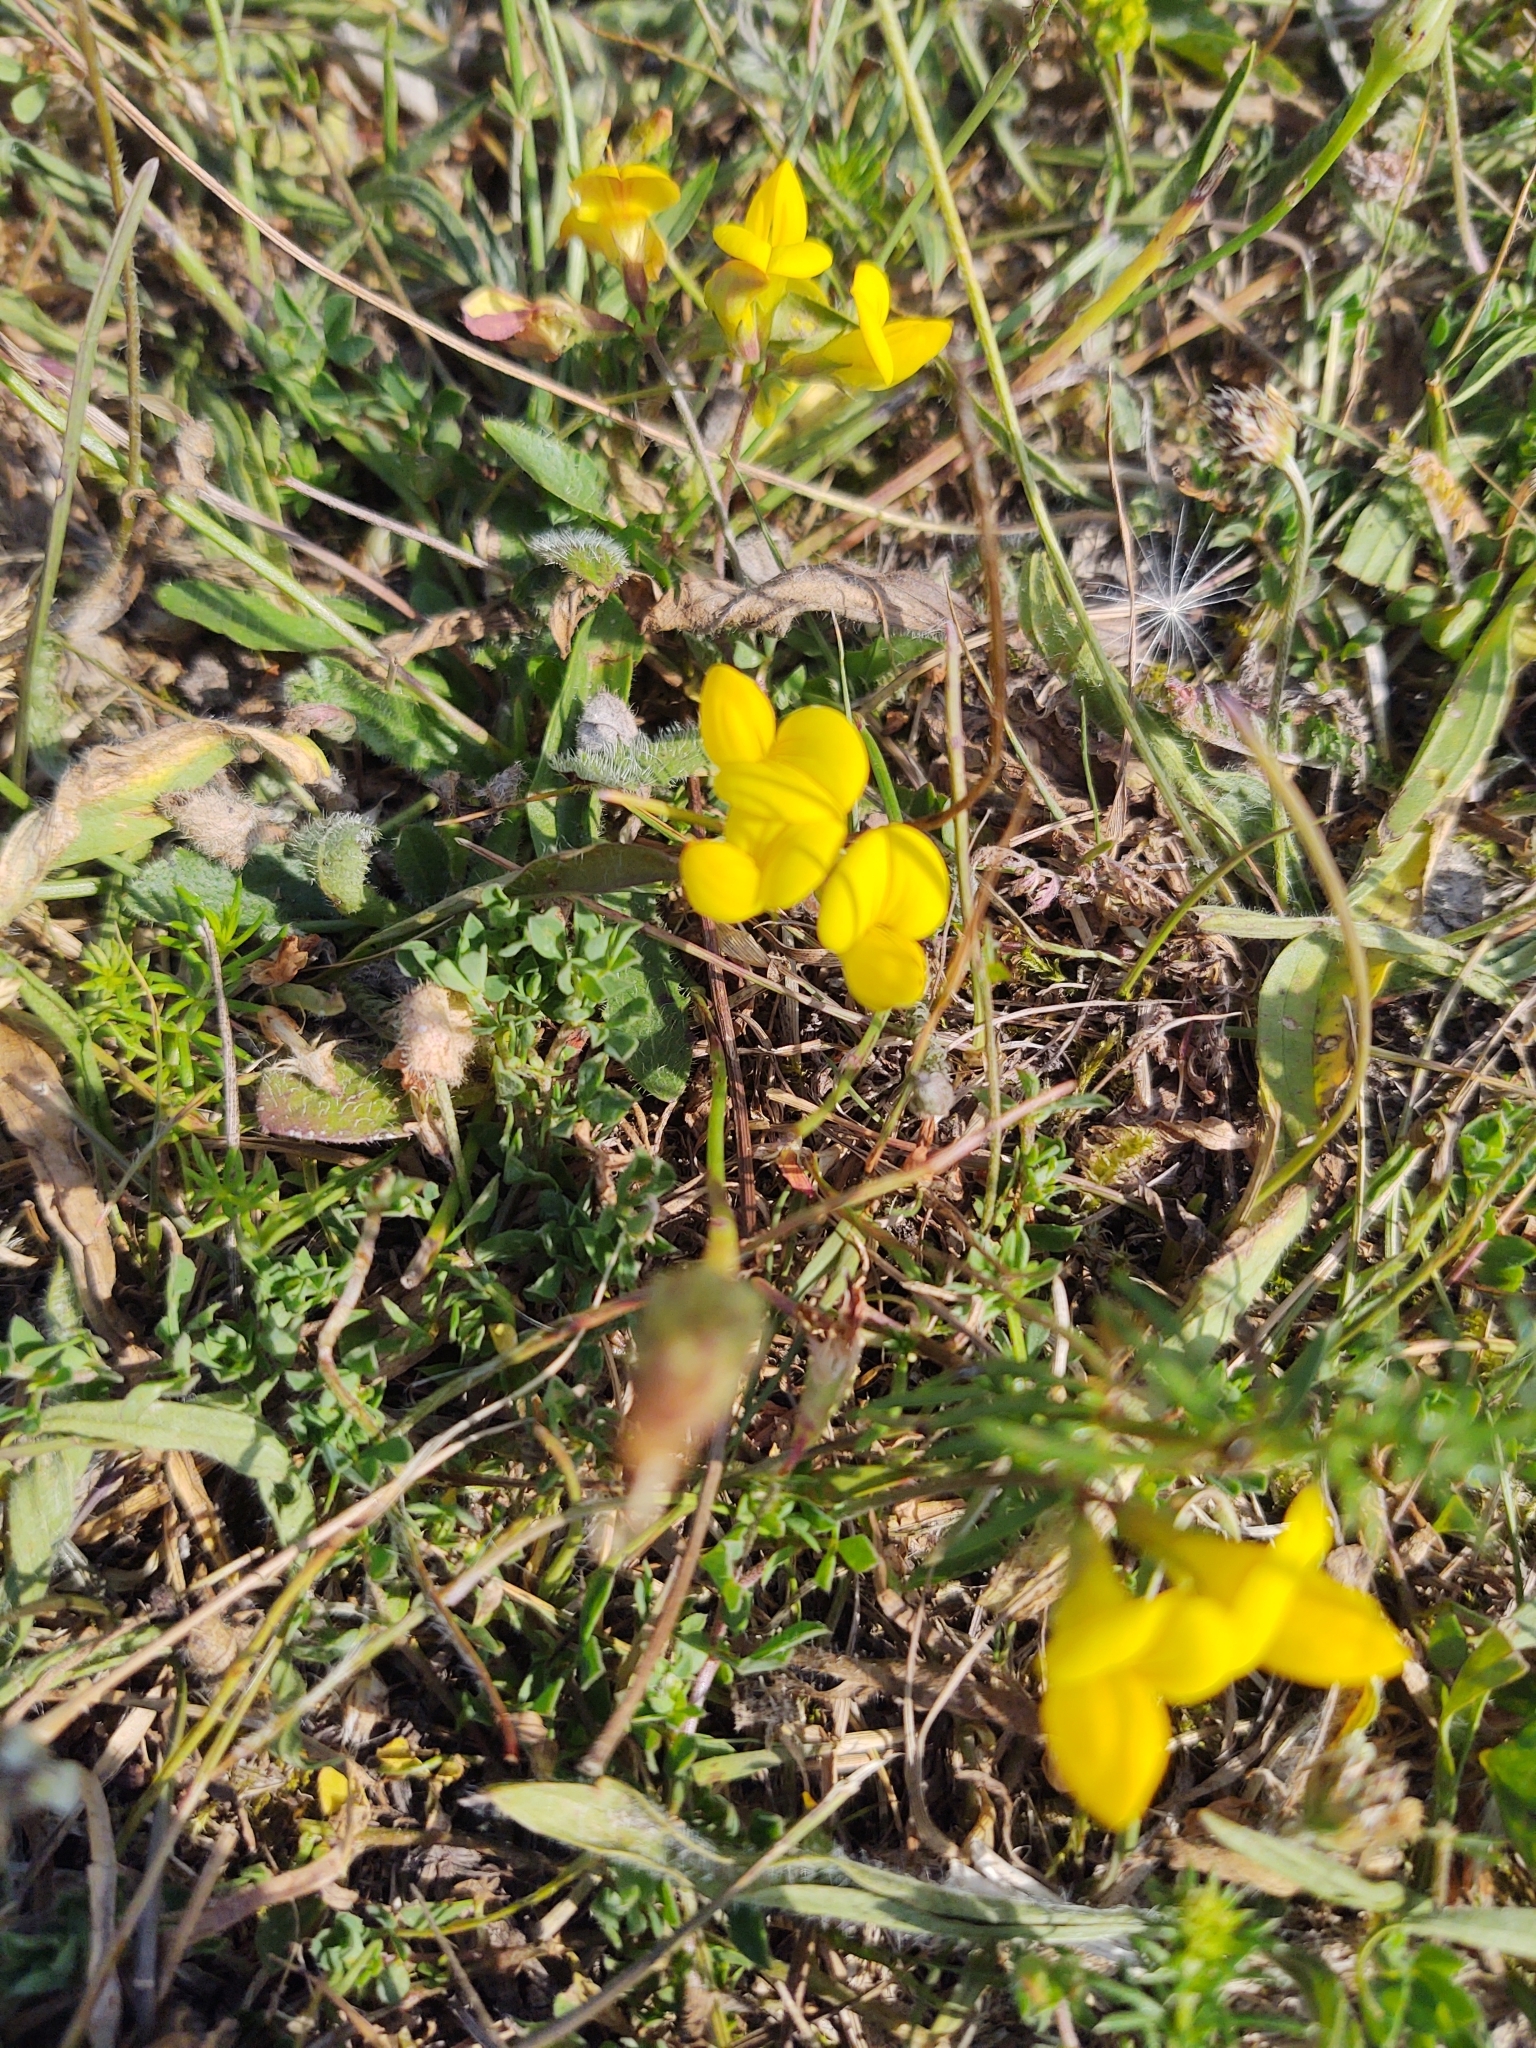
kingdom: Plantae
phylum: Tracheophyta
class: Magnoliopsida
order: Fabales
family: Fabaceae
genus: Lotus
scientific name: Lotus corniculatus
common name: Common bird's-foot-trefoil
